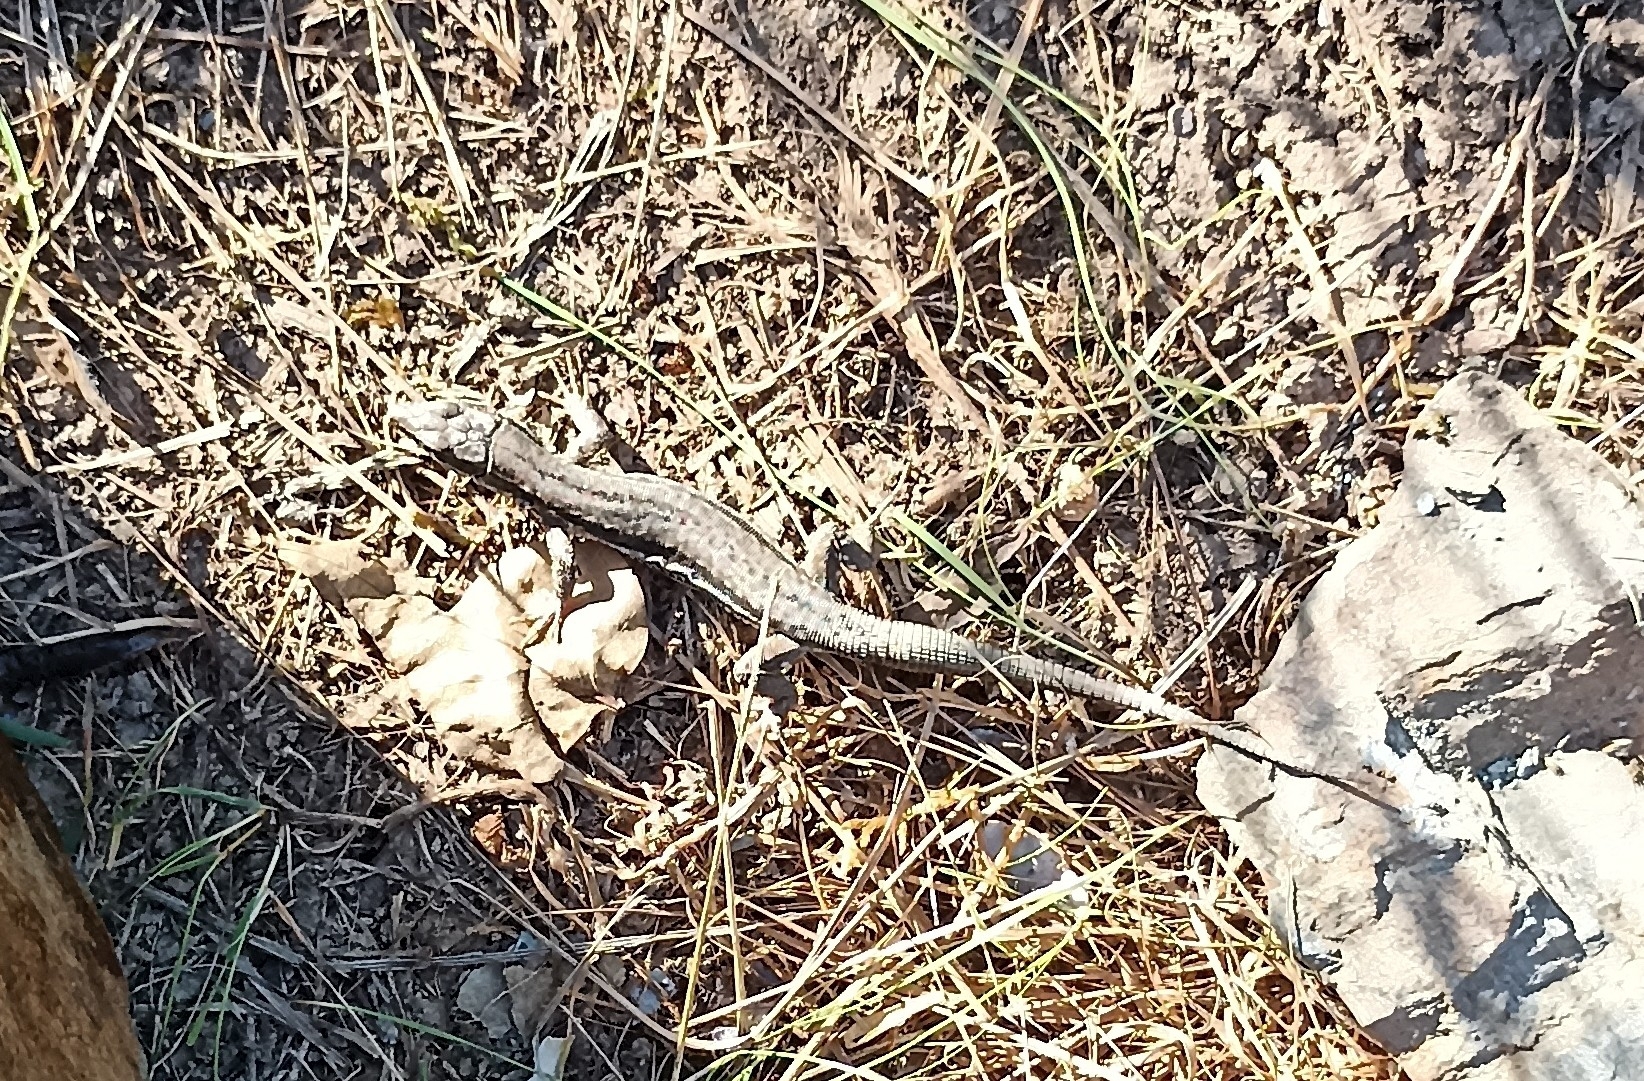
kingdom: Animalia
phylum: Chordata
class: Squamata
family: Lacertidae
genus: Podarcis
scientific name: Podarcis muralis
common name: Common wall lizard
